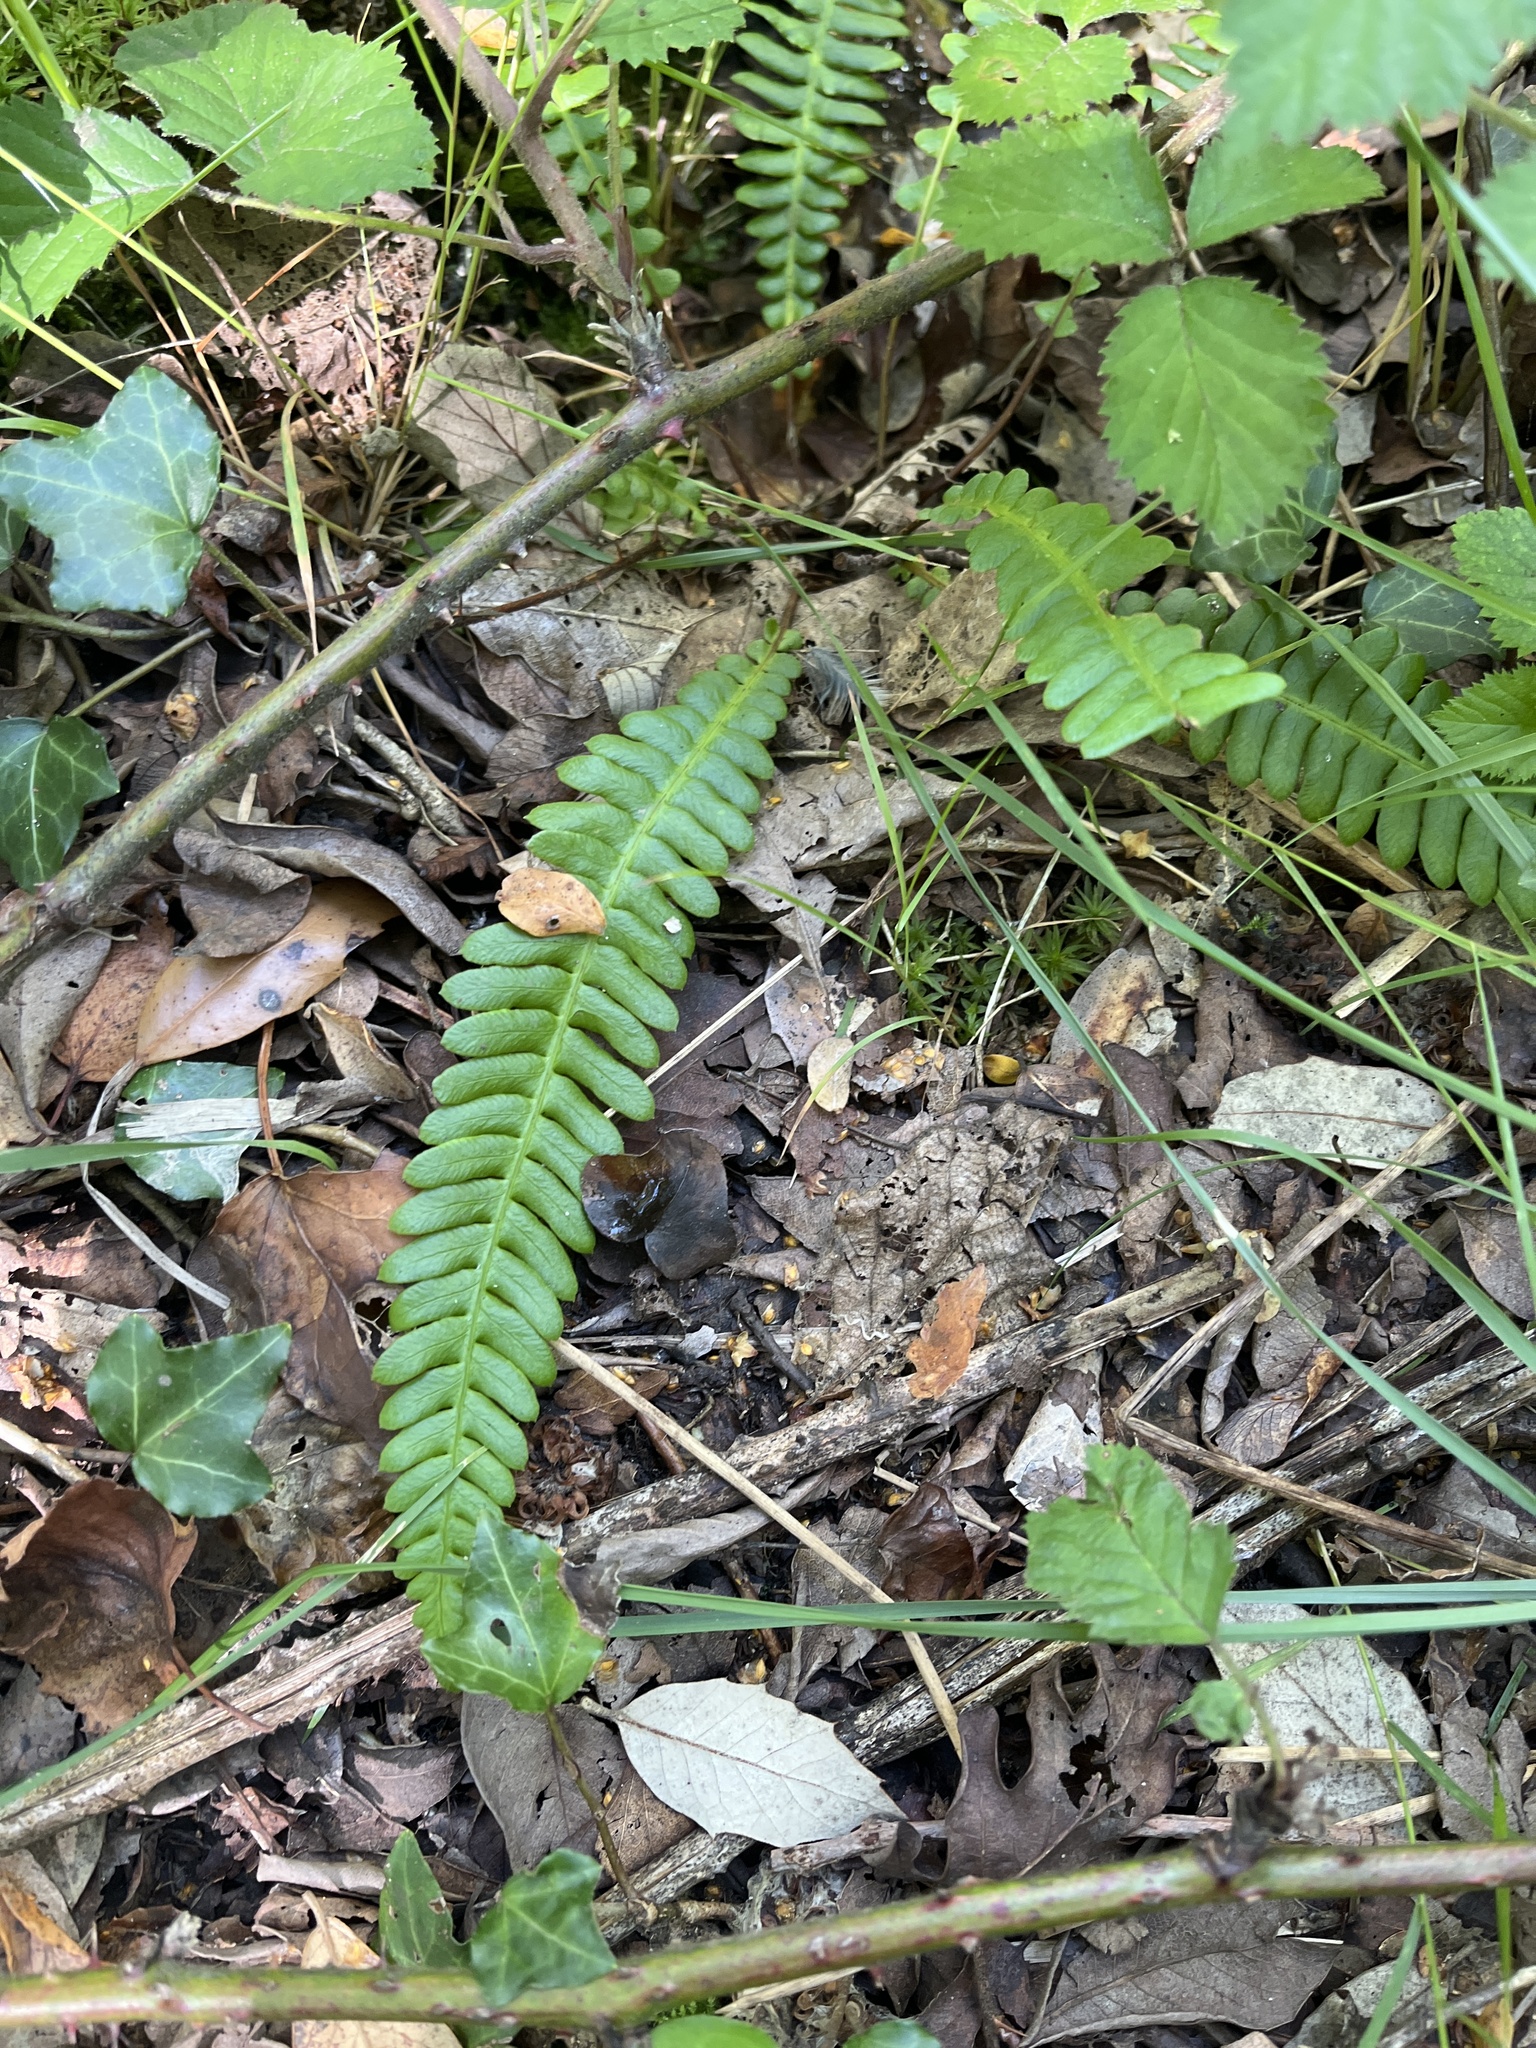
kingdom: Plantae
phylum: Tracheophyta
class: Polypodiopsida
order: Polypodiales
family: Blechnaceae
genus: Struthiopteris
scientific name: Struthiopteris spicant
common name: Deer fern
